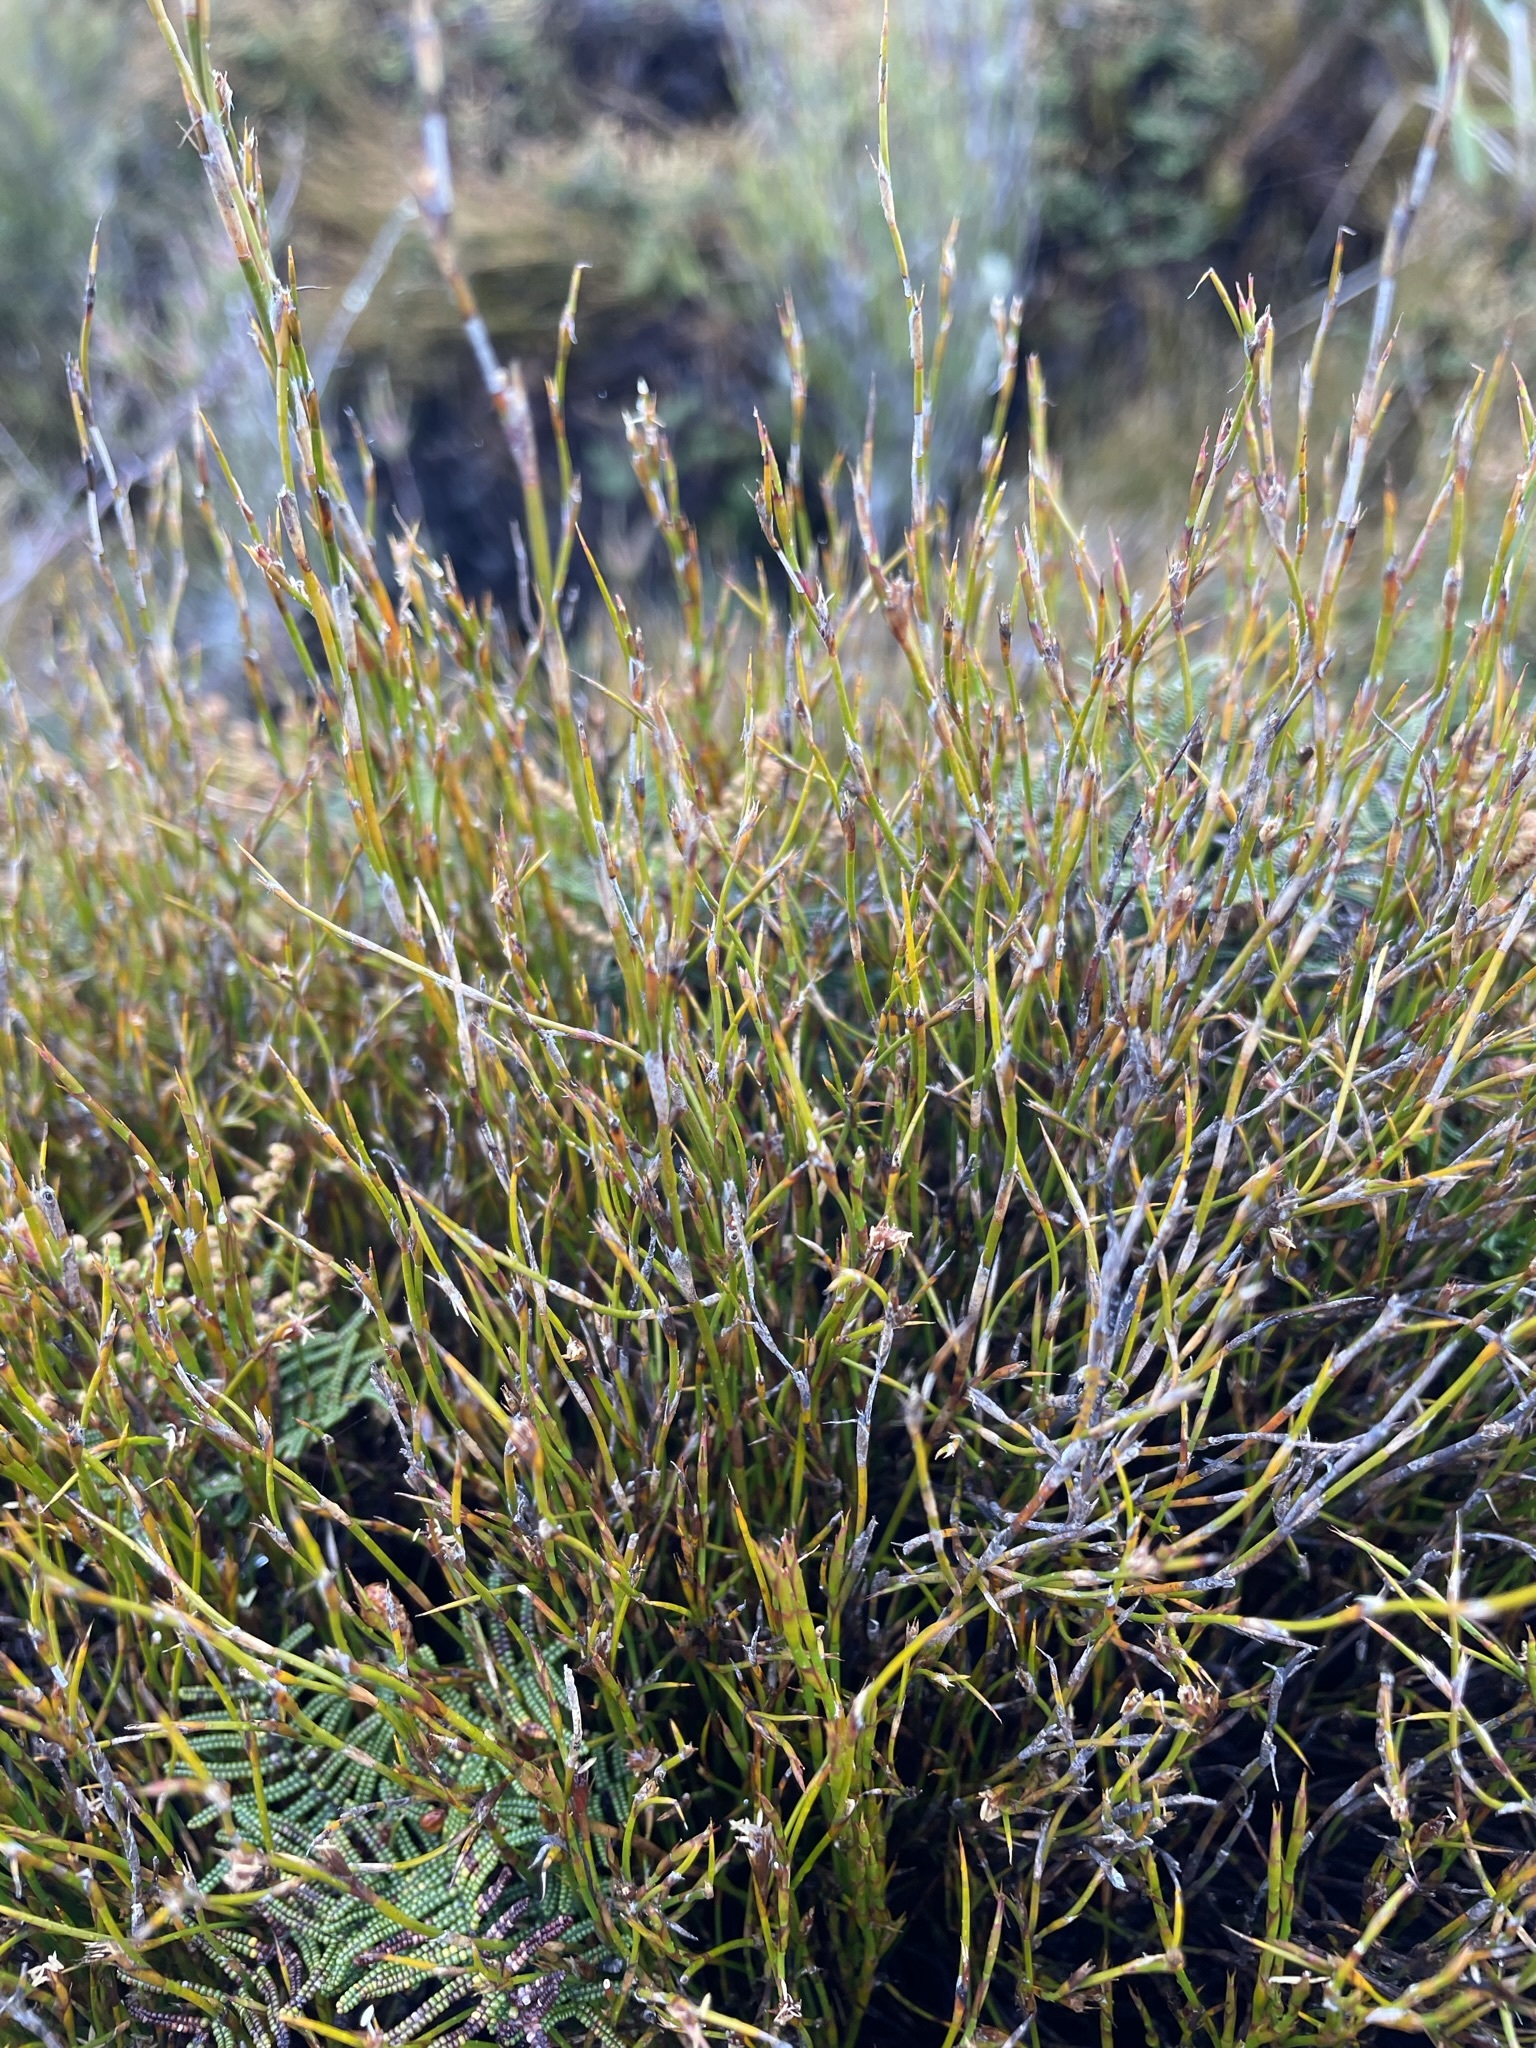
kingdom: Plantae
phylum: Tracheophyta
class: Liliopsida
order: Poales
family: Restionaceae
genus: Empodisma
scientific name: Empodisma minus
